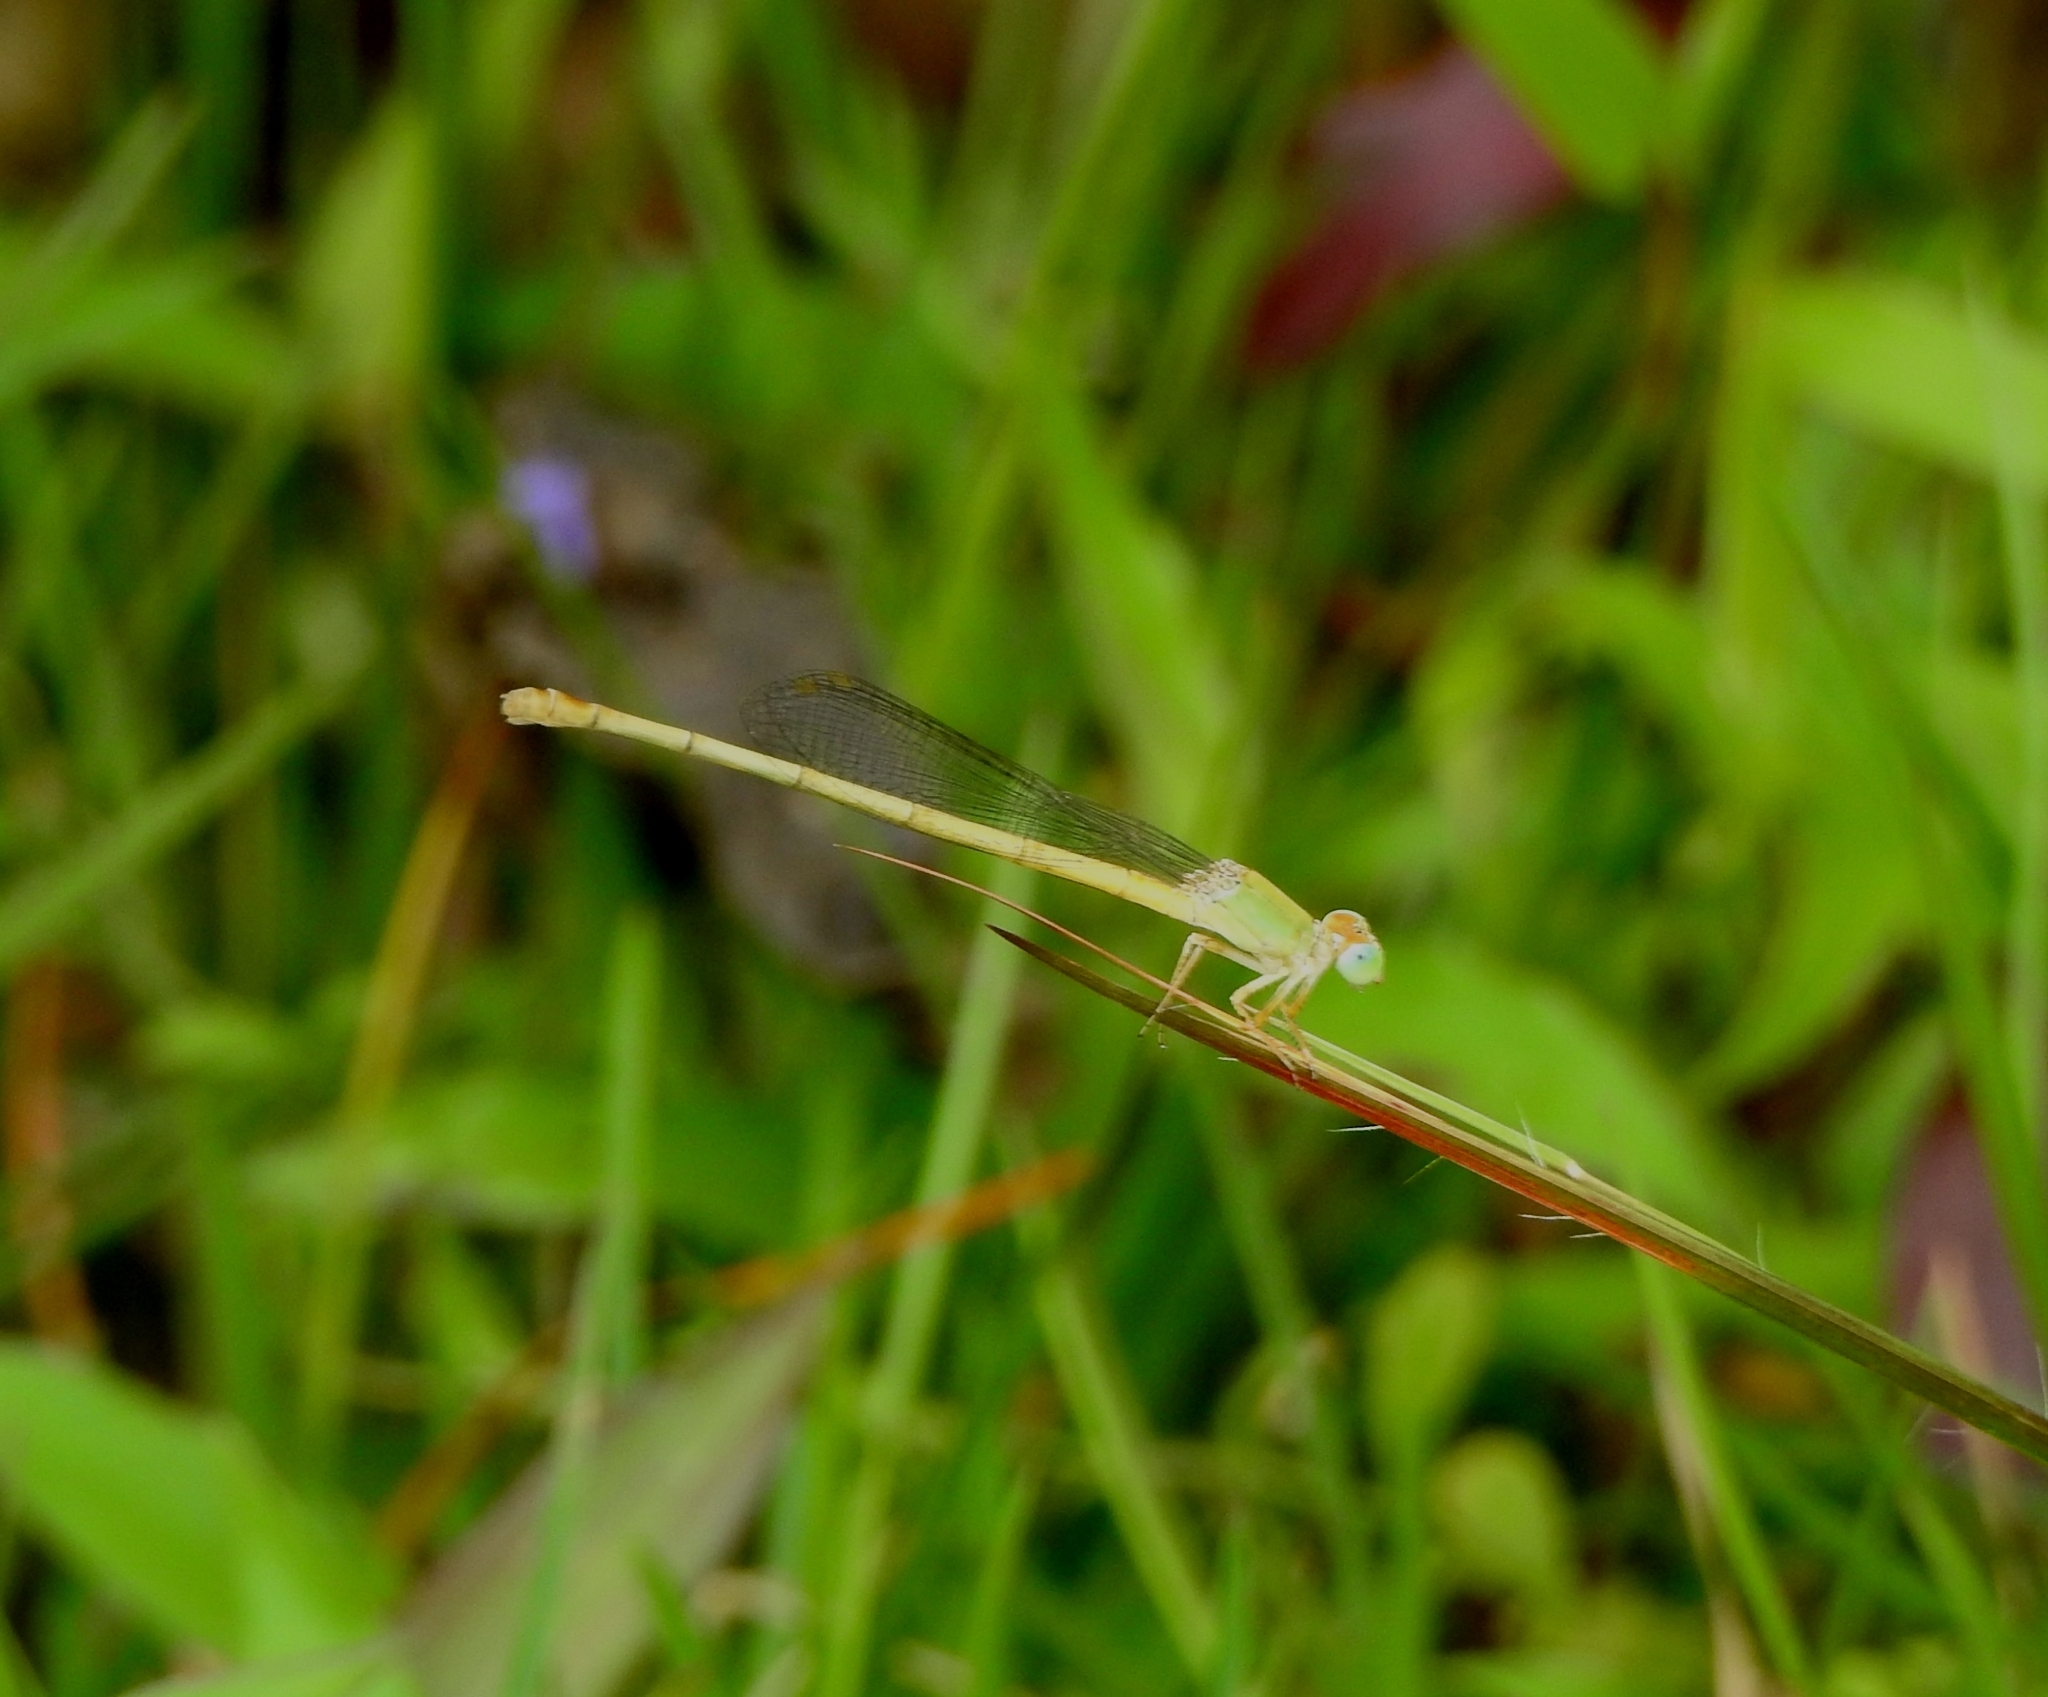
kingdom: Animalia
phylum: Arthropoda
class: Insecta
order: Odonata
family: Coenagrionidae
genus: Ceriagrion
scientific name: Ceriagrion coromandelianum
